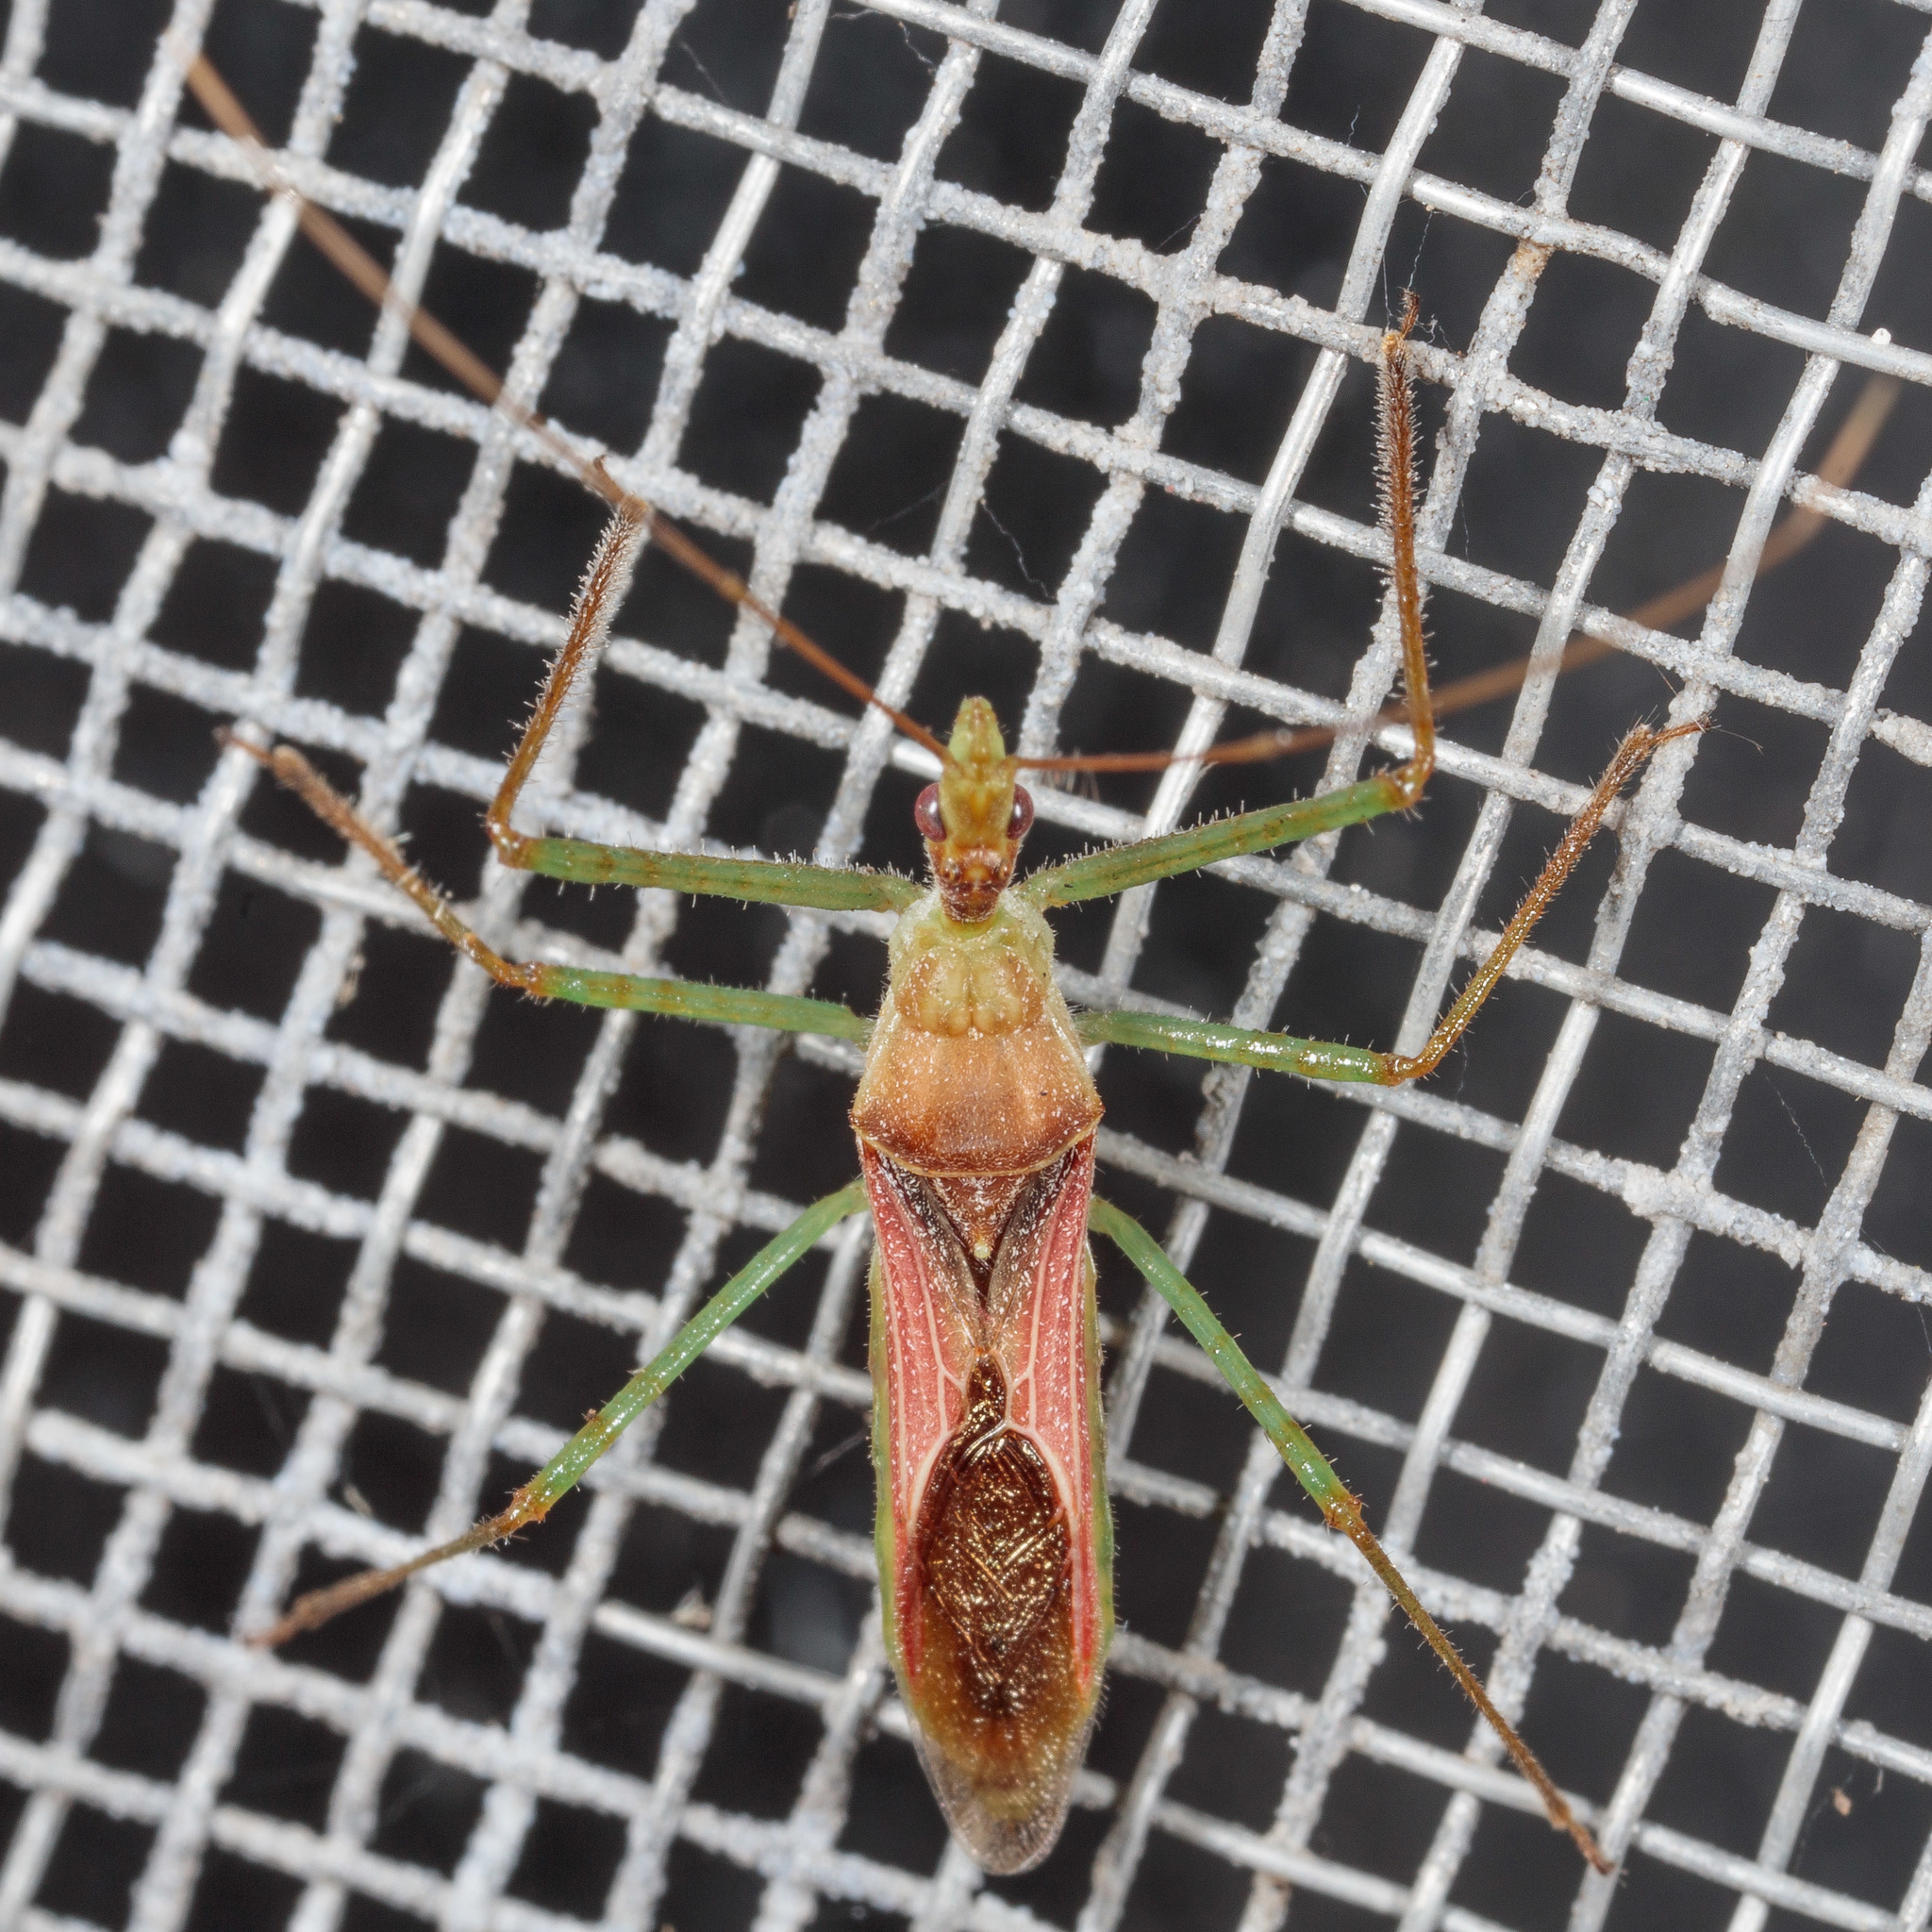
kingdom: Animalia
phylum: Arthropoda
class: Insecta
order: Hemiptera
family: Reduviidae
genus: Zelus
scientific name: Zelus renardii
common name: Assassin bug
